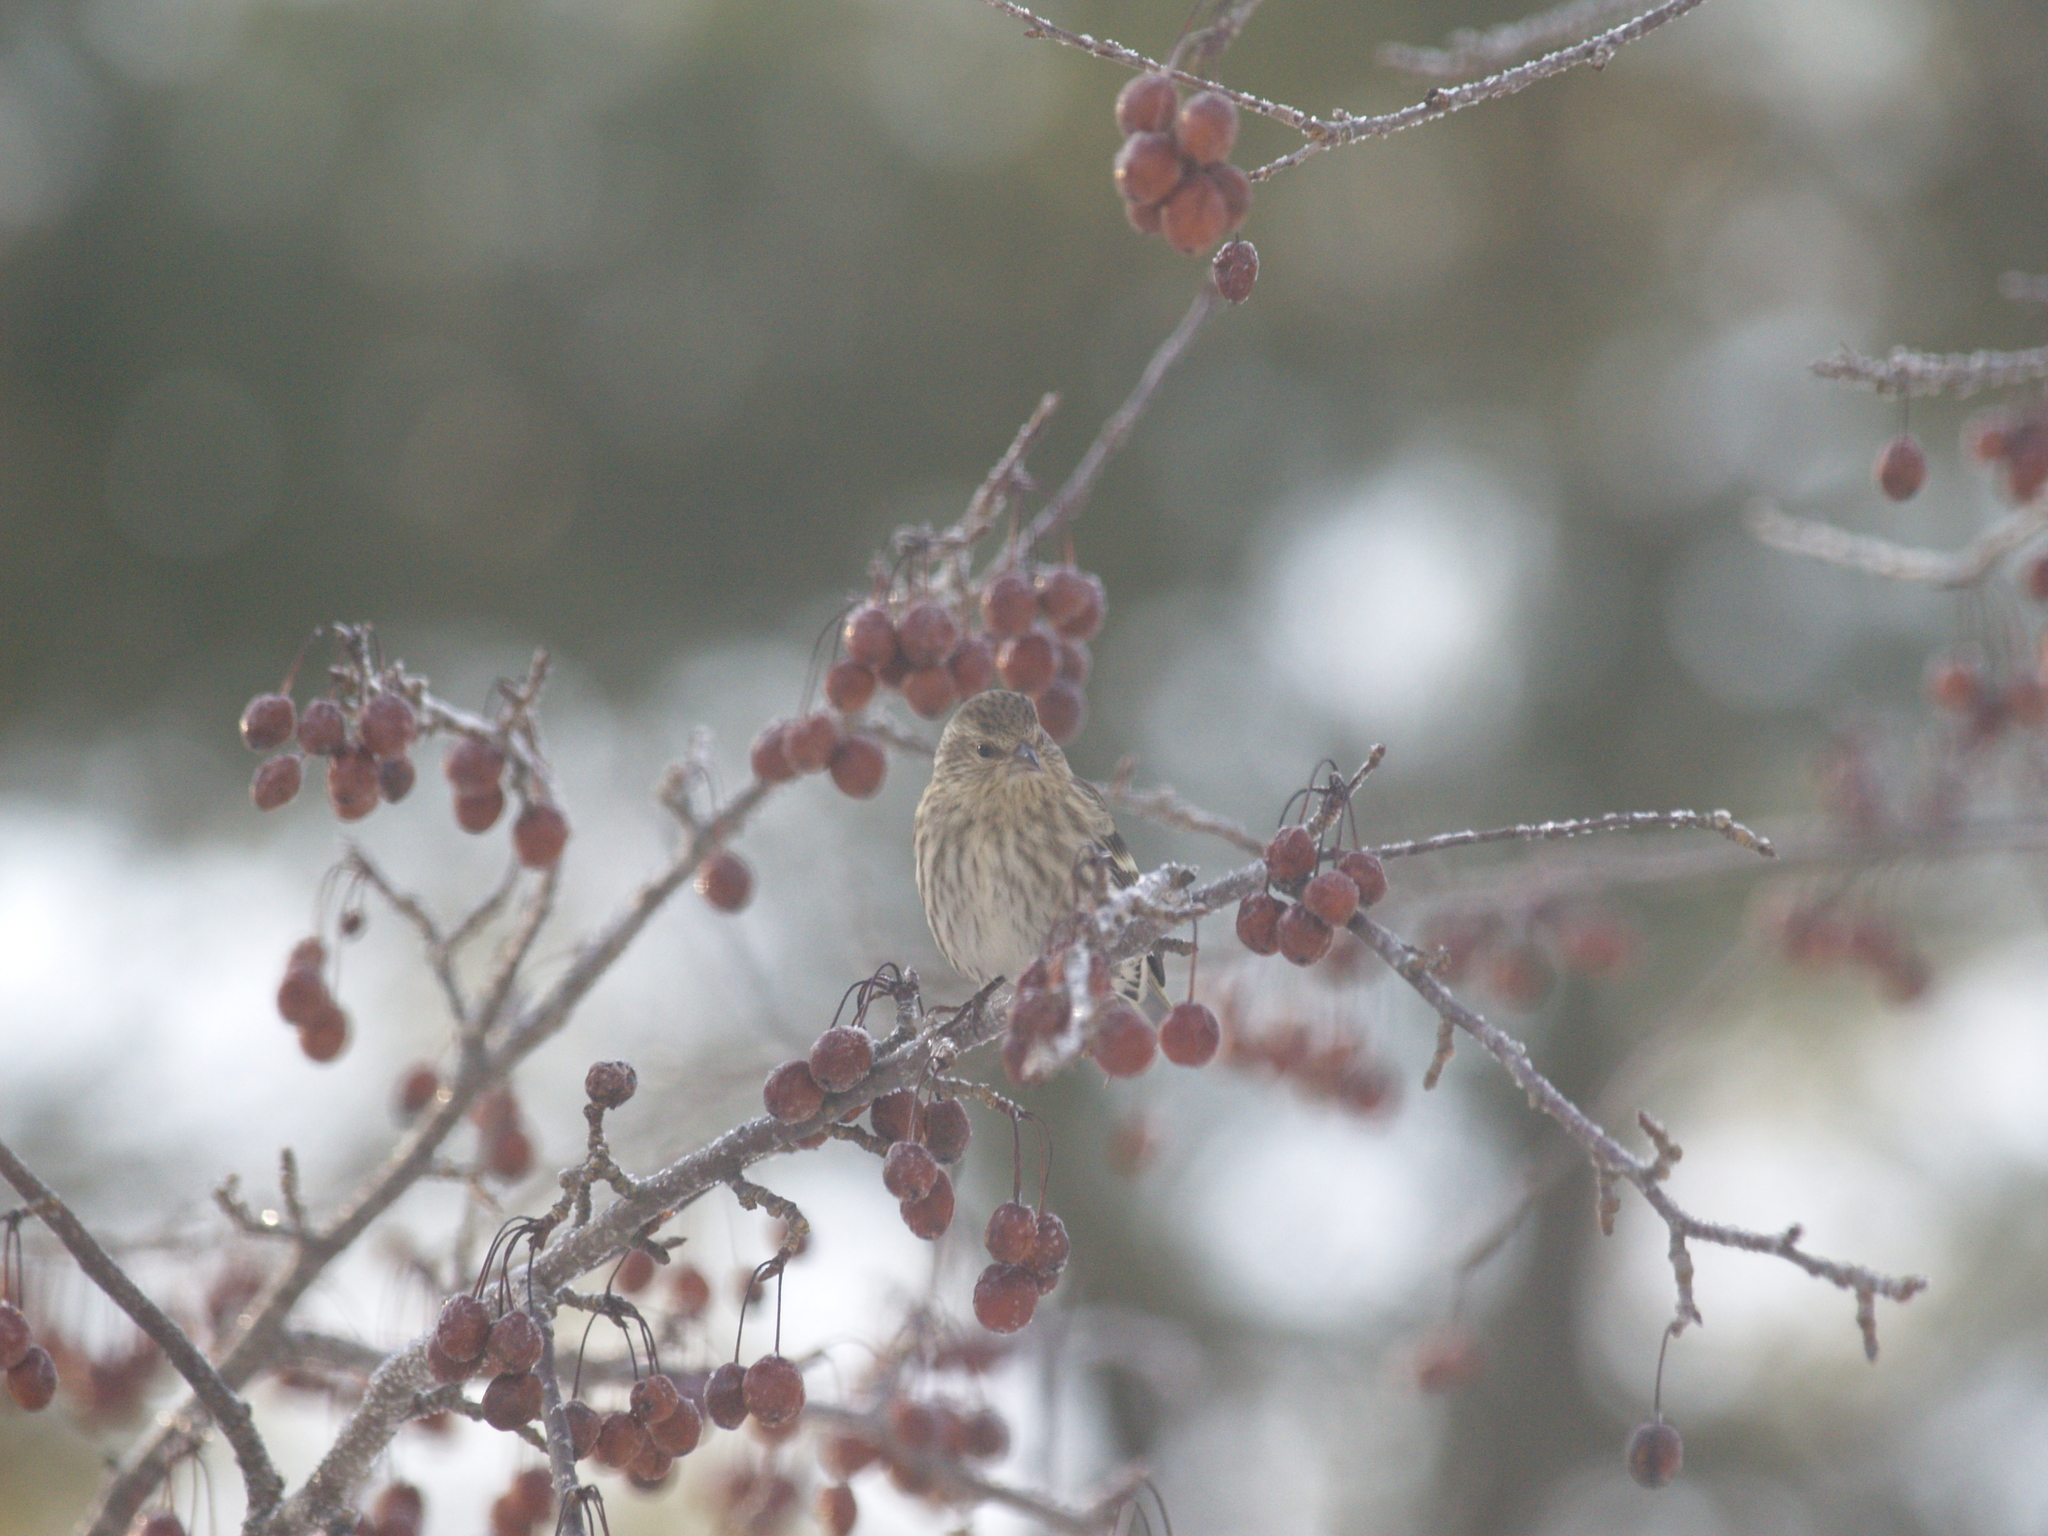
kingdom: Animalia
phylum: Chordata
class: Aves
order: Passeriformes
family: Fringillidae
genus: Spinus
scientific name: Spinus pinus
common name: Pine siskin
